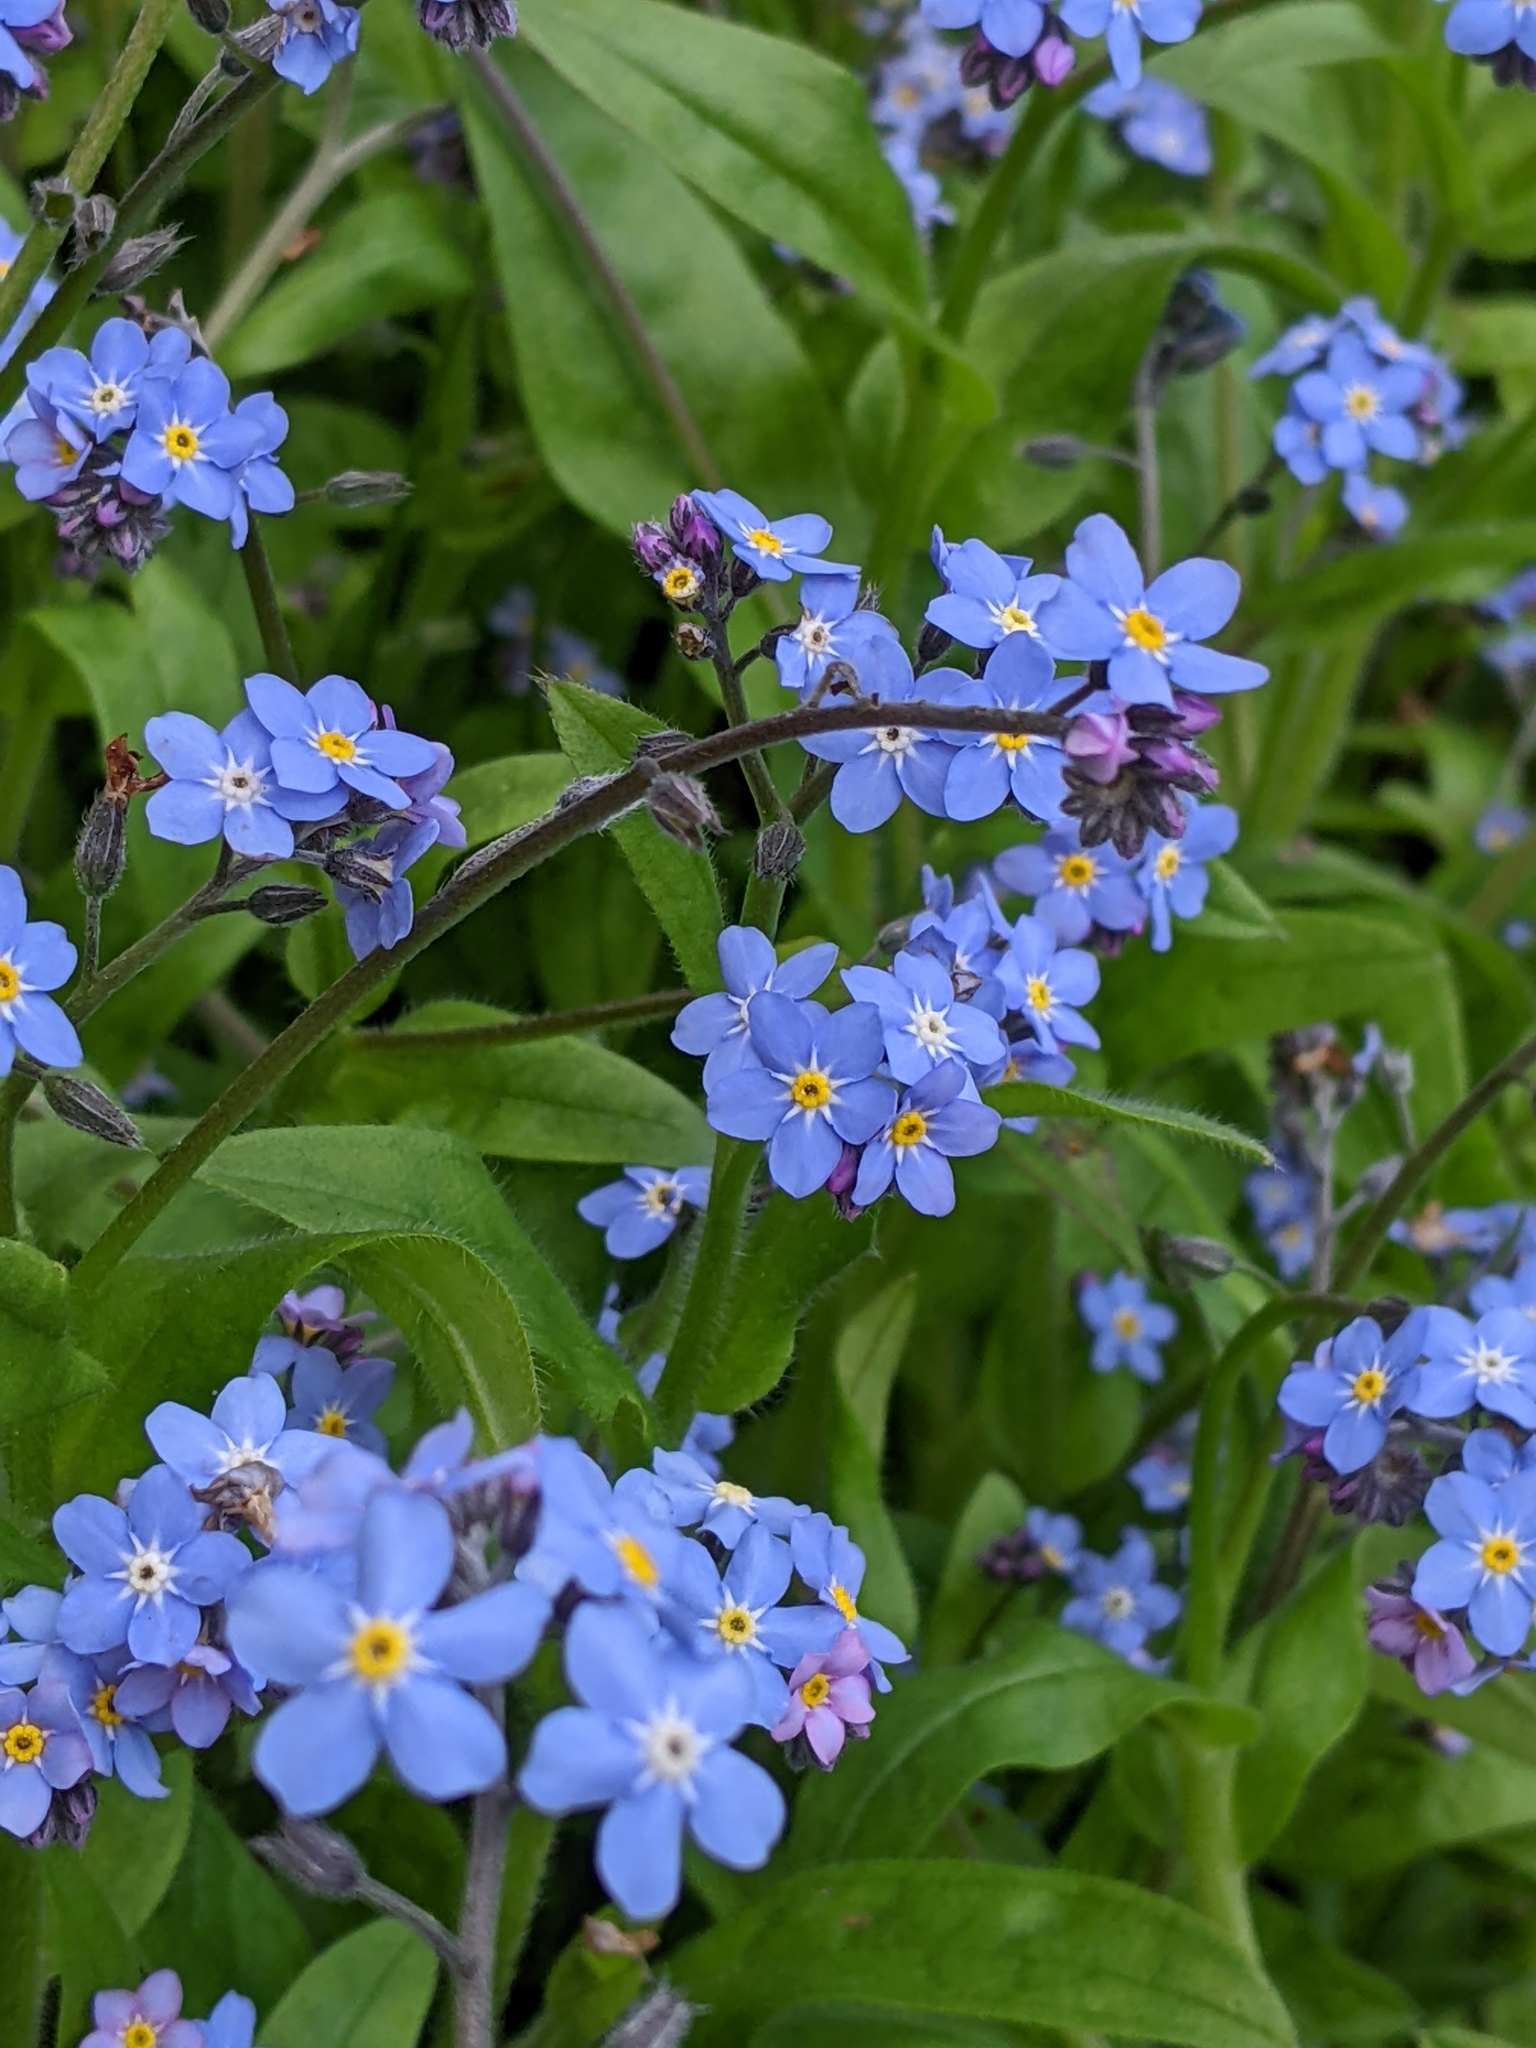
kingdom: Plantae
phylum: Tracheophyta
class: Magnoliopsida
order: Boraginales
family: Boraginaceae
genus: Myosotis
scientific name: Myosotis sylvatica
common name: Wood forget-me-not
